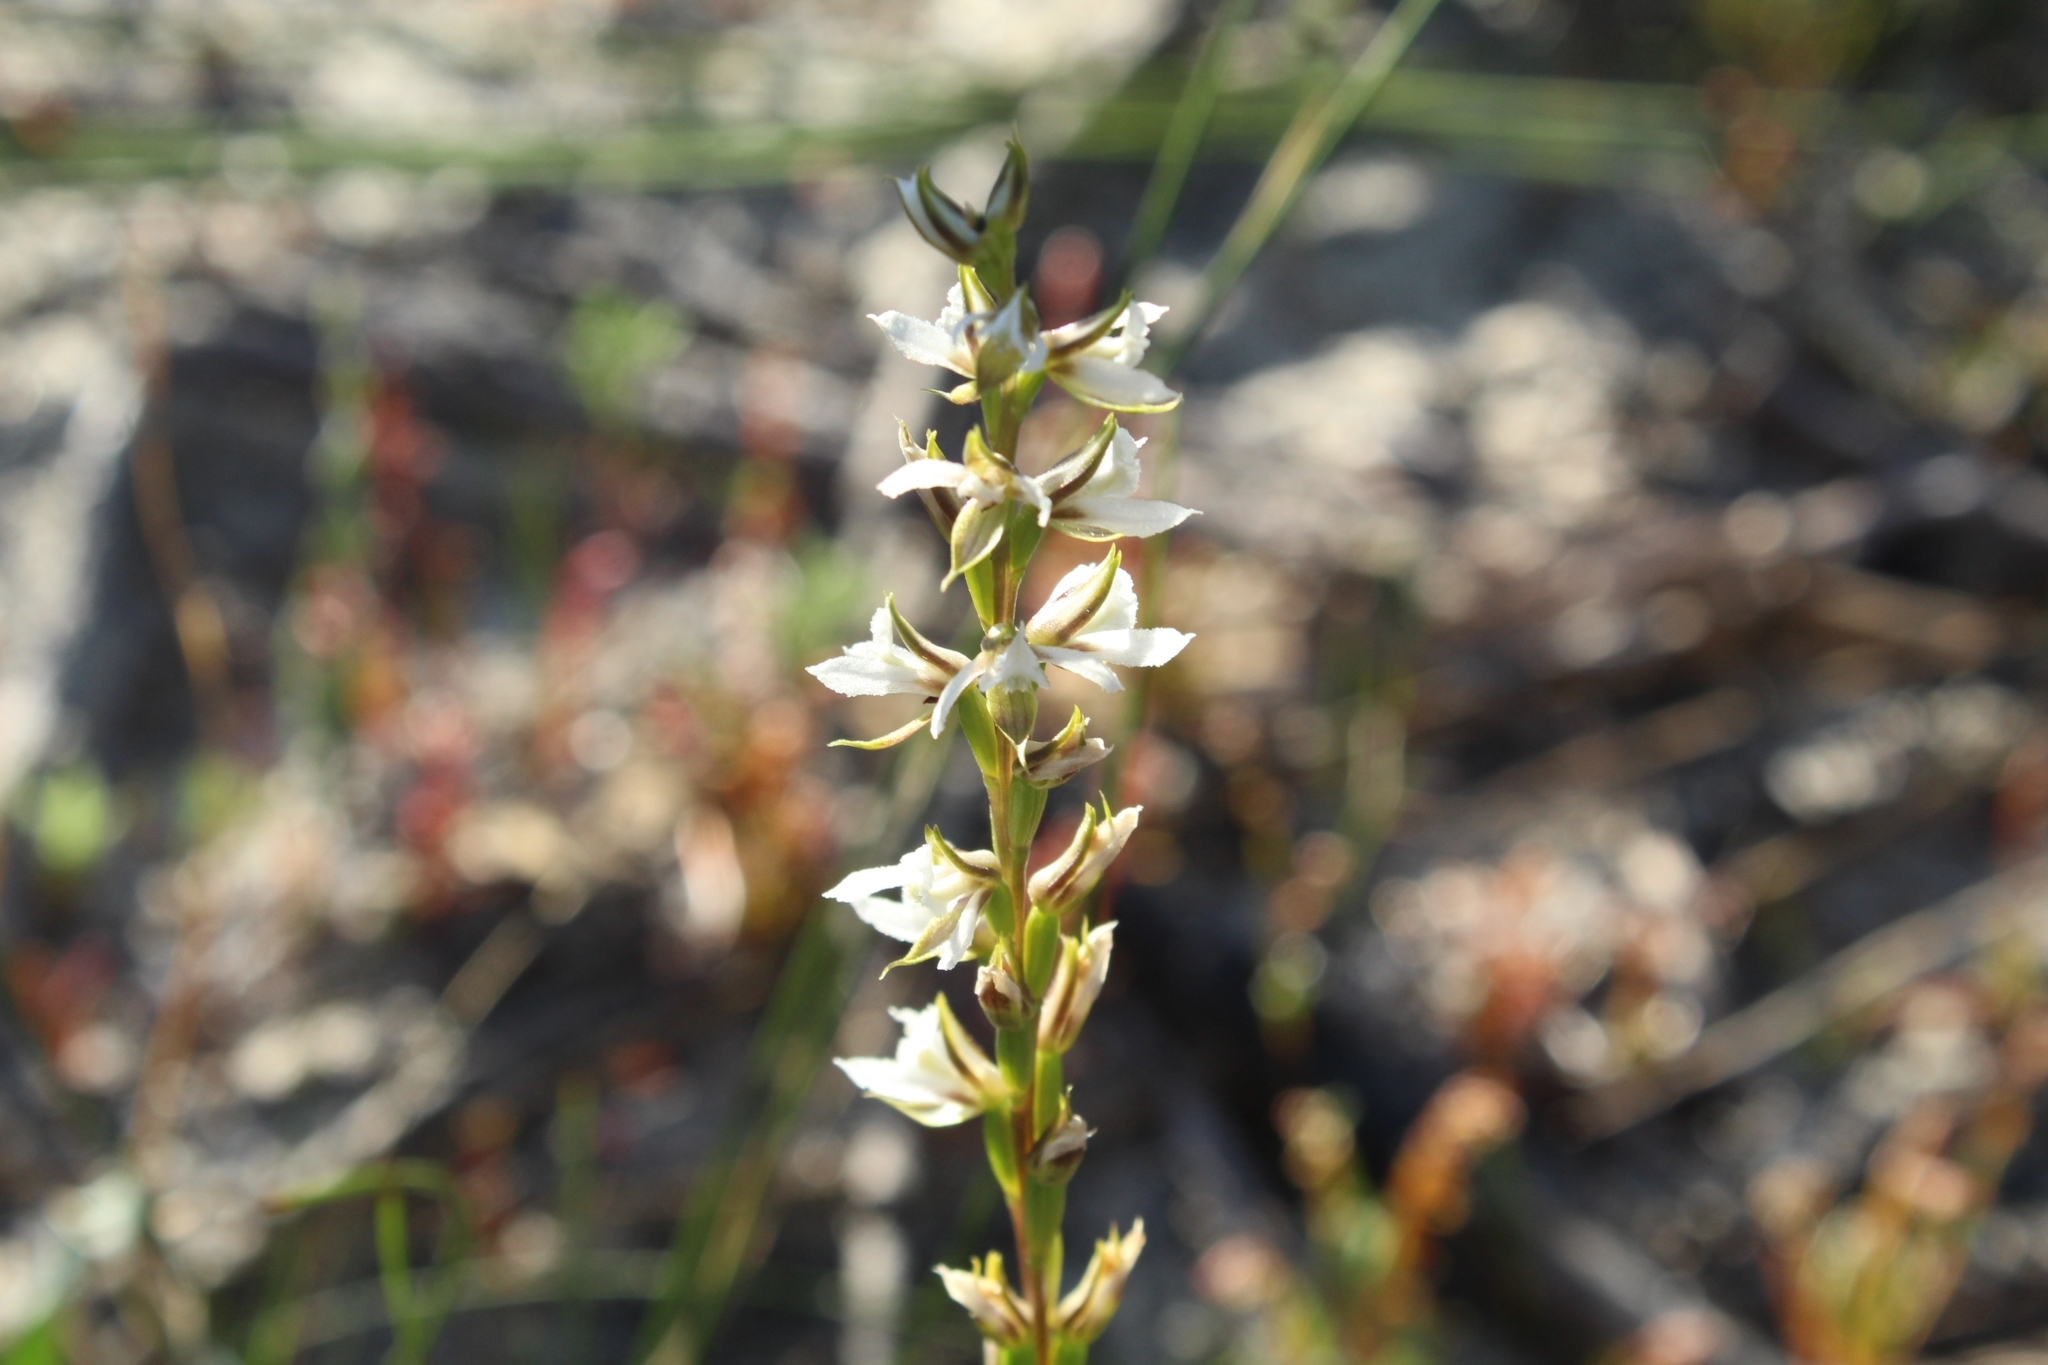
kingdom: Plantae
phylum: Tracheophyta
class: Liliopsida
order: Asparagales
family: Orchidaceae
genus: Prasophyllum
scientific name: Prasophyllum hians
